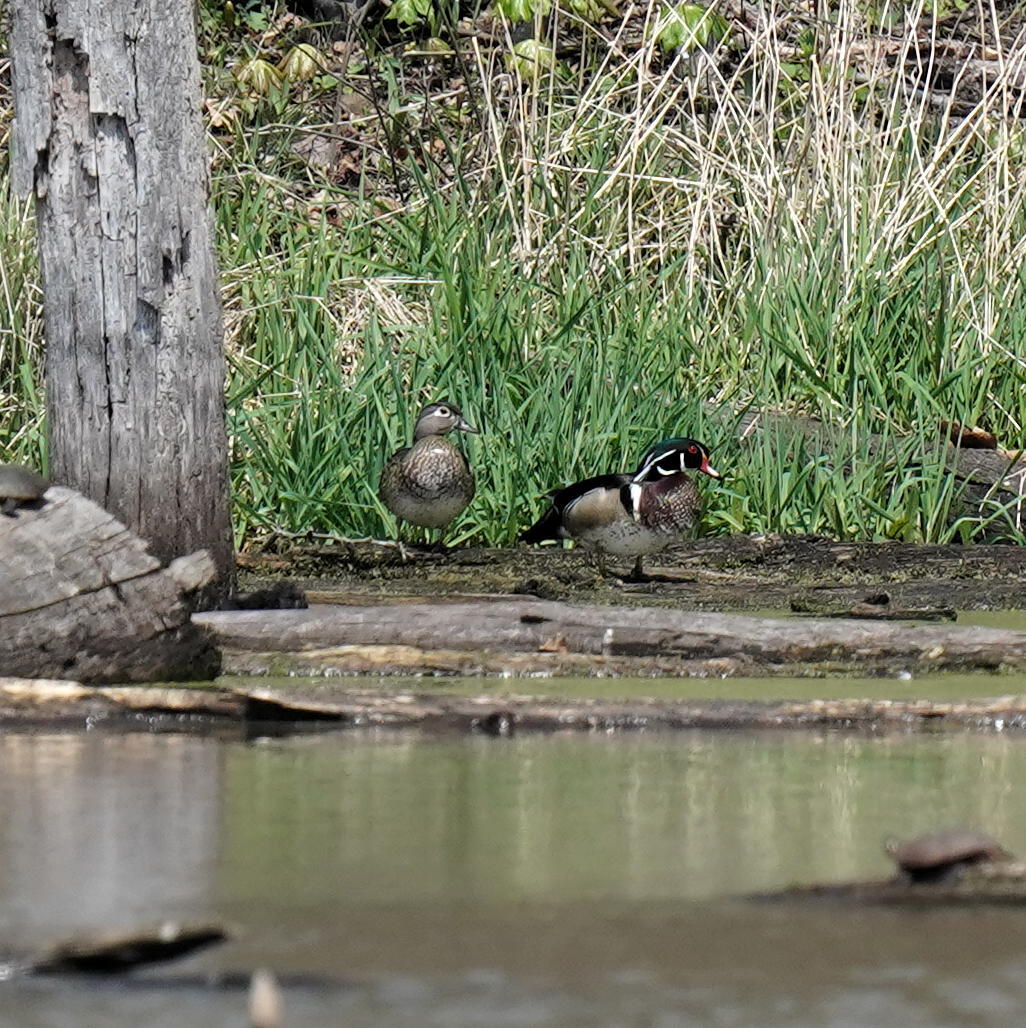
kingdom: Animalia
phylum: Chordata
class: Aves
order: Anseriformes
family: Anatidae
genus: Aix
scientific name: Aix sponsa
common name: Wood duck
